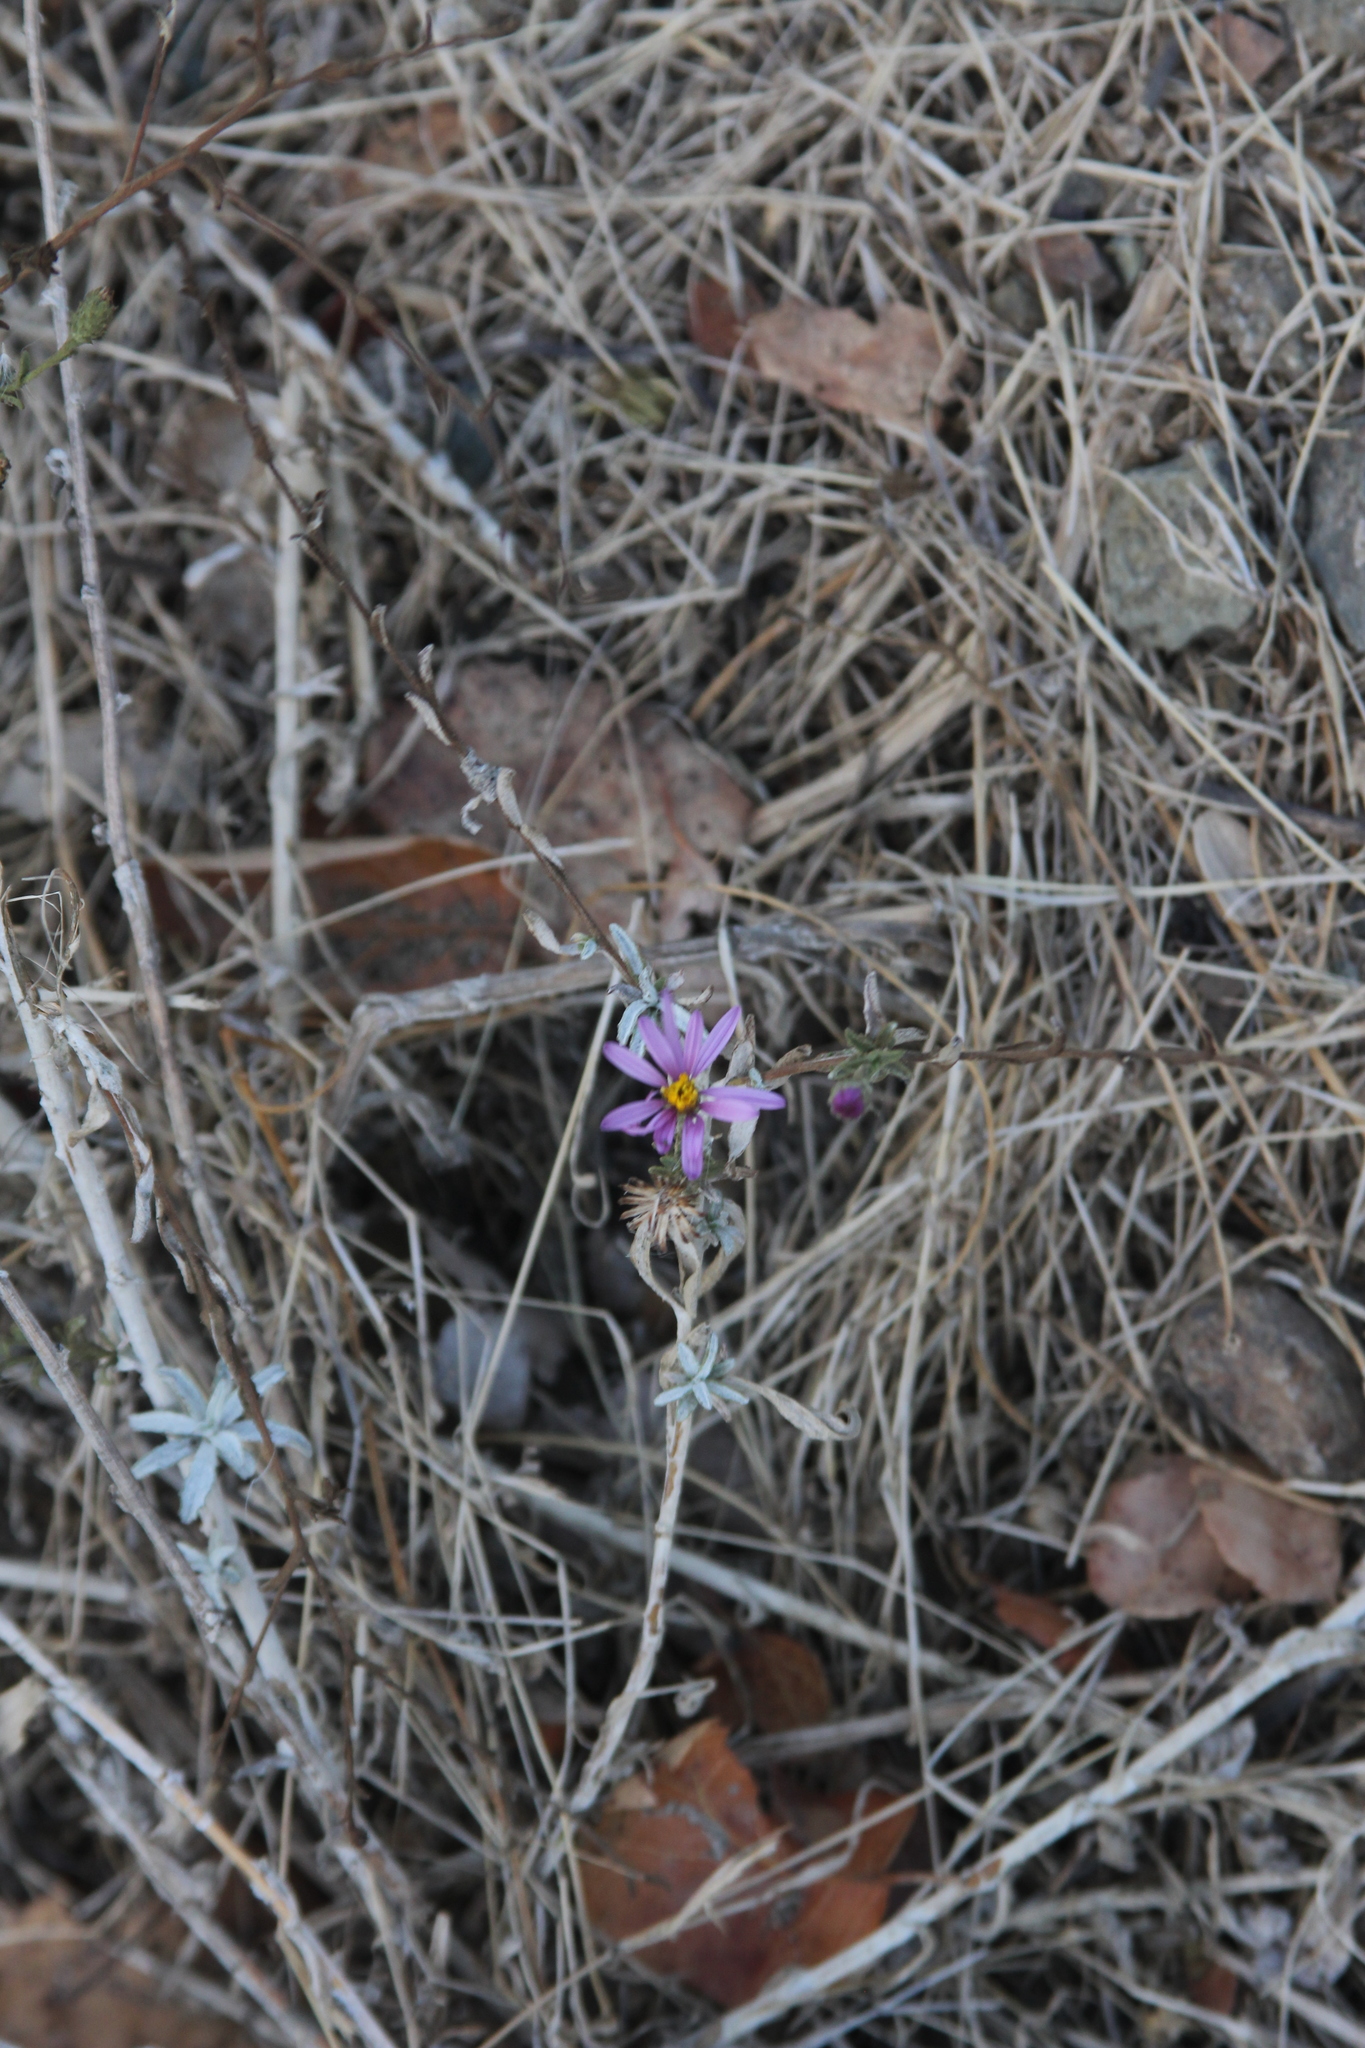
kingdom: Plantae
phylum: Tracheophyta
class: Magnoliopsida
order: Asterales
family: Asteraceae
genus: Corethrogyne
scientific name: Corethrogyne filaginifolia
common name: Sand-aster
